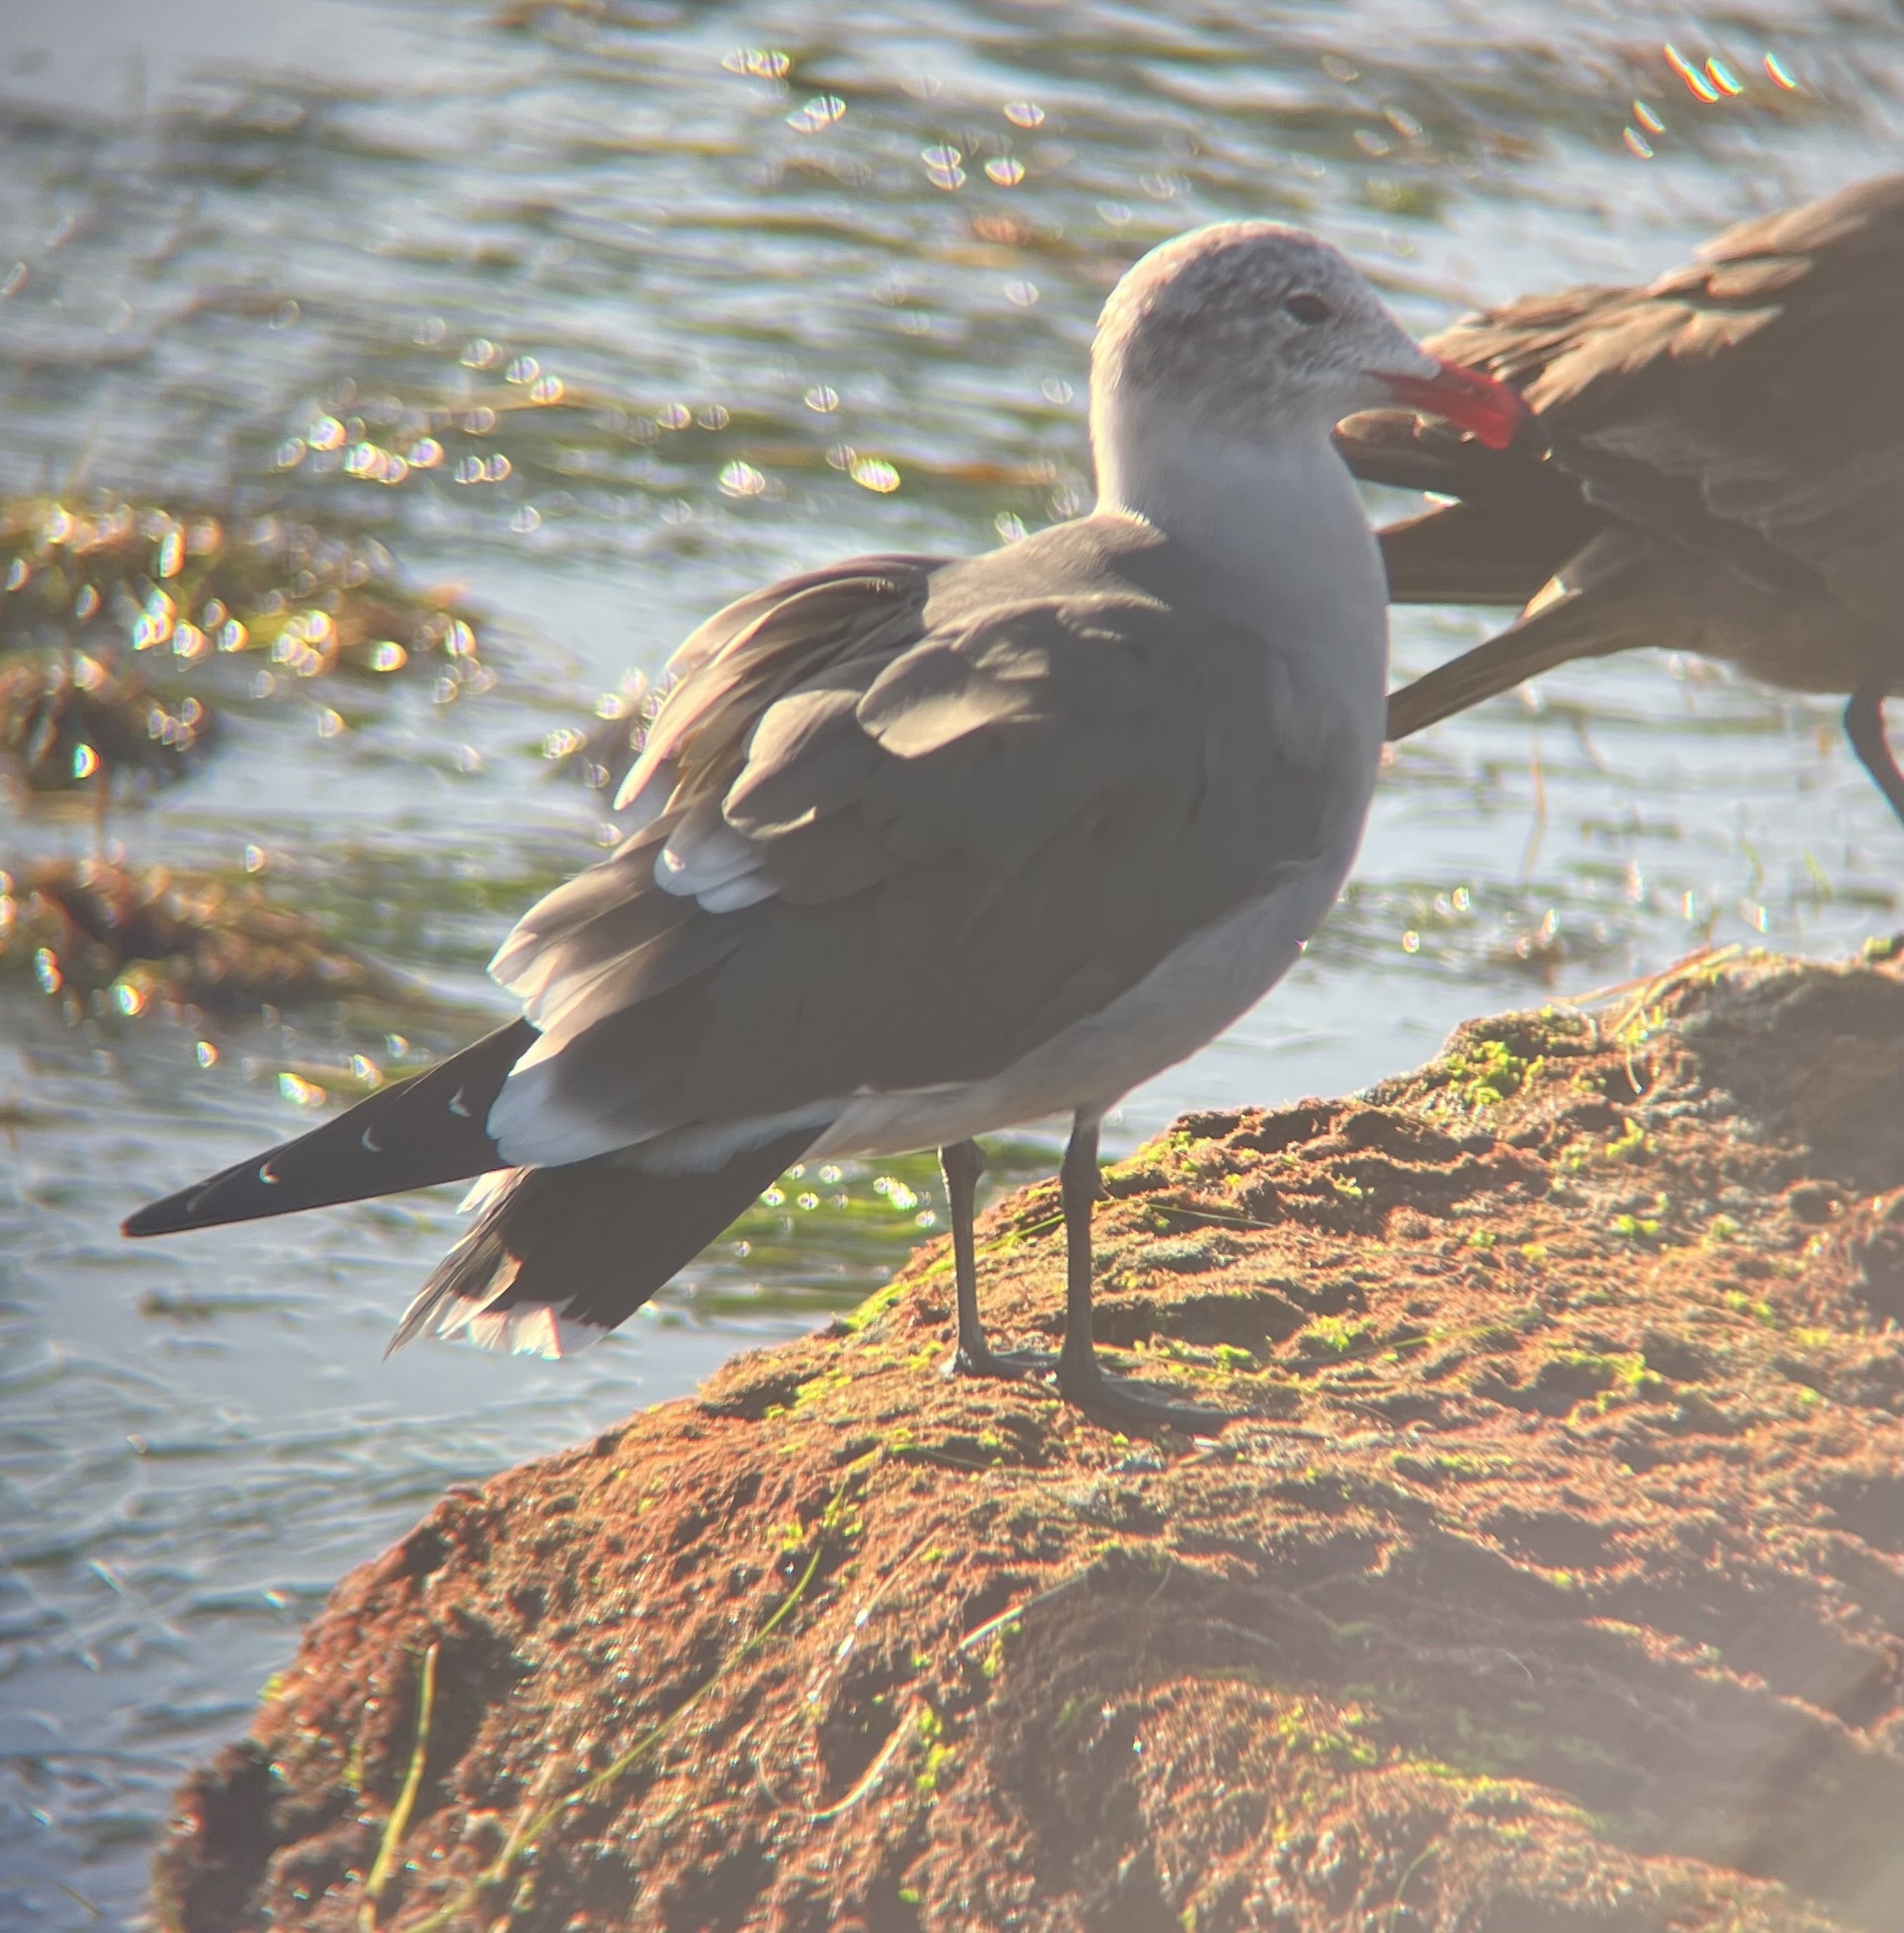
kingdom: Animalia
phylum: Chordata
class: Aves
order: Charadriiformes
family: Laridae
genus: Larus
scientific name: Larus heermanni
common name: Heermann's gull
